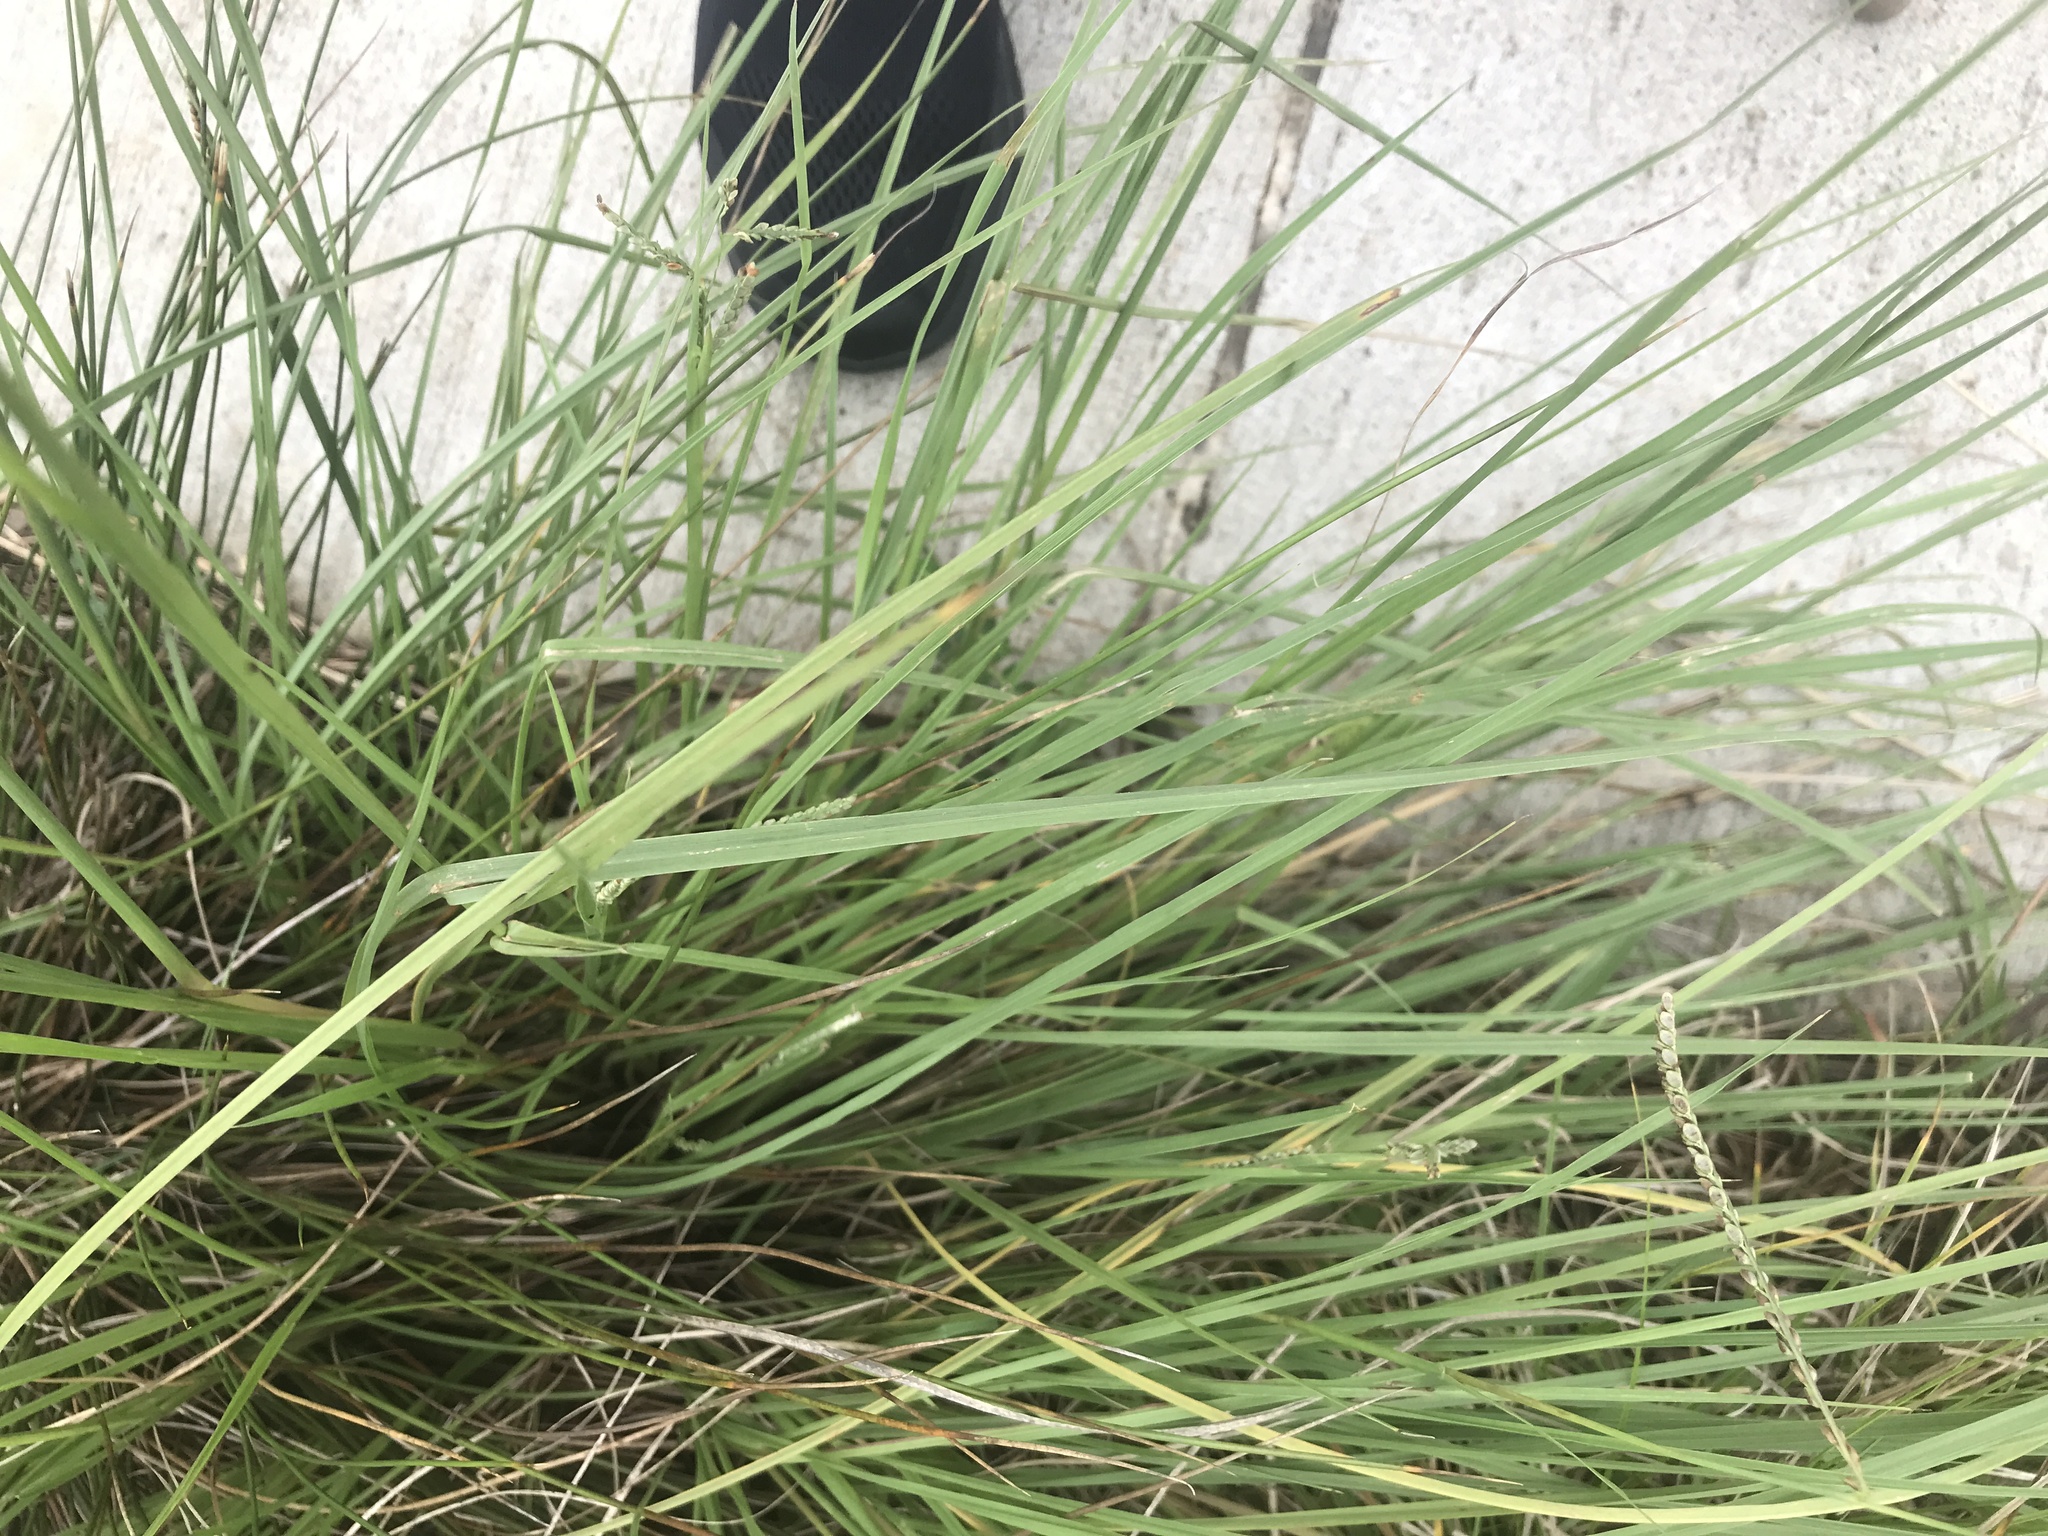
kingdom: Plantae
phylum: Tracheophyta
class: Liliopsida
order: Poales
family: Poaceae
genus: Paspalum
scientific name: Paspalum plicatulum
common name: Top paspalum
